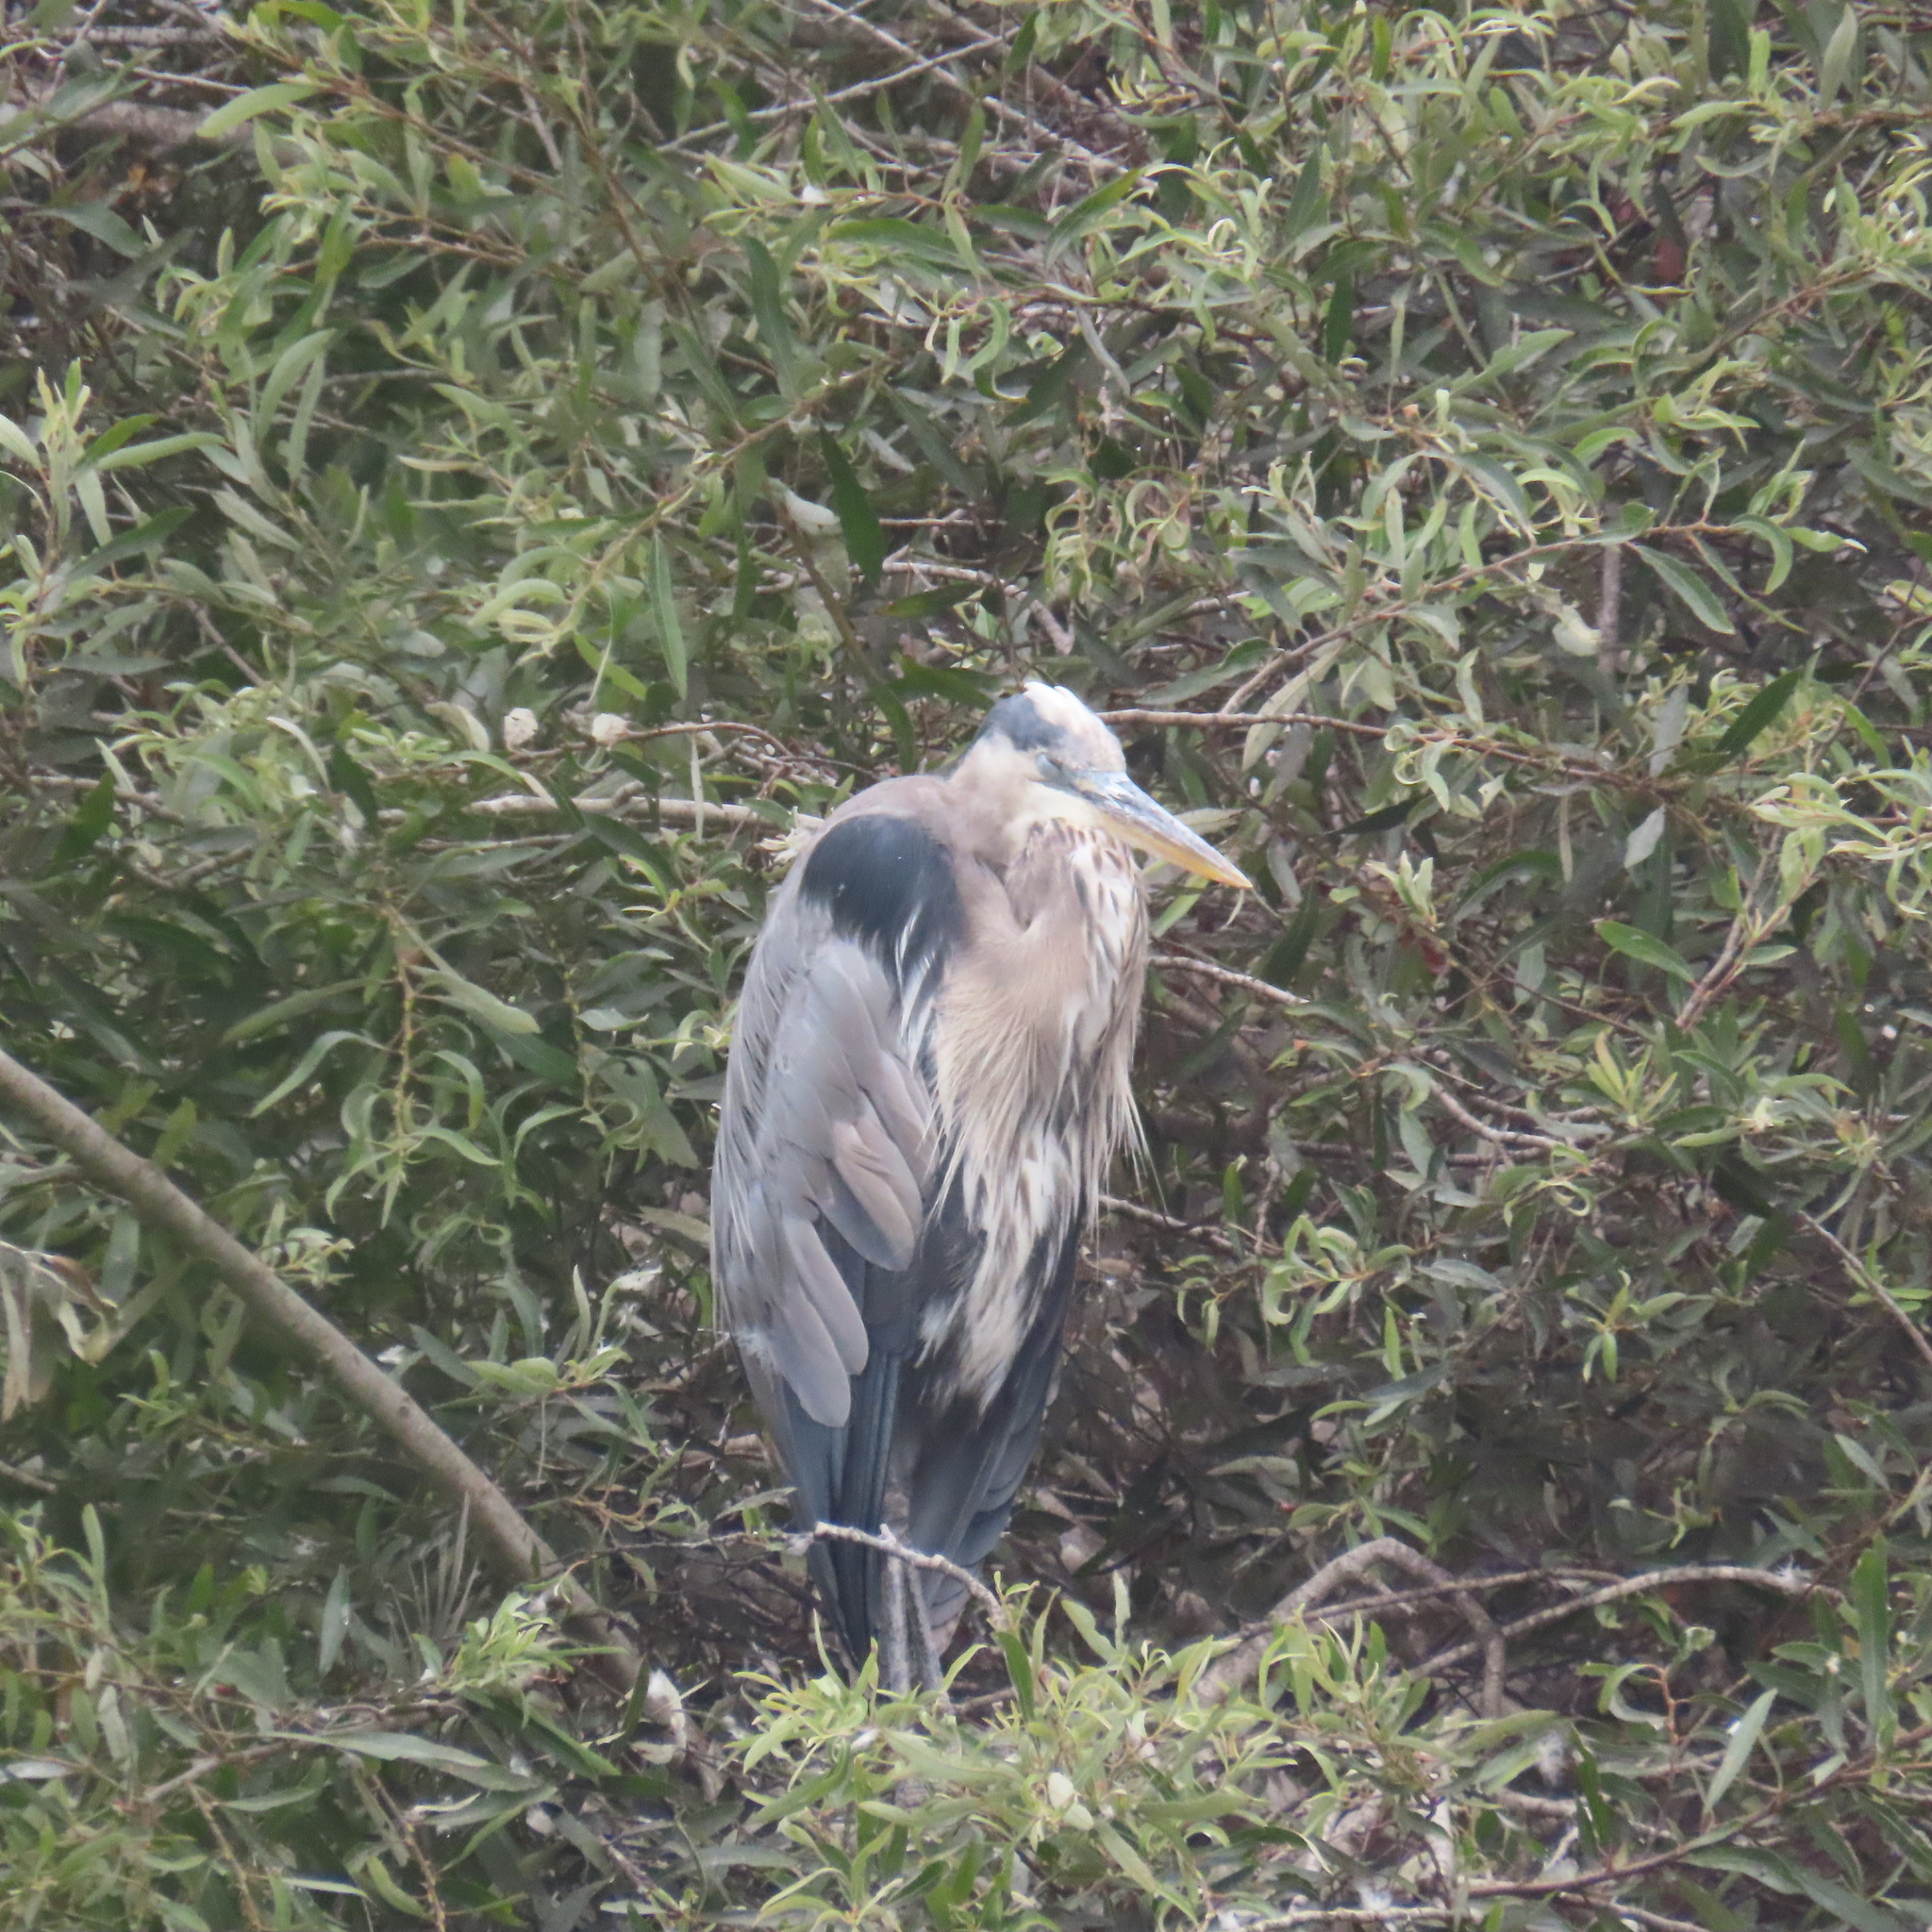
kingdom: Animalia
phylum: Chordata
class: Aves
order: Pelecaniformes
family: Ardeidae
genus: Ardea
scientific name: Ardea herodias
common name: Great blue heron
